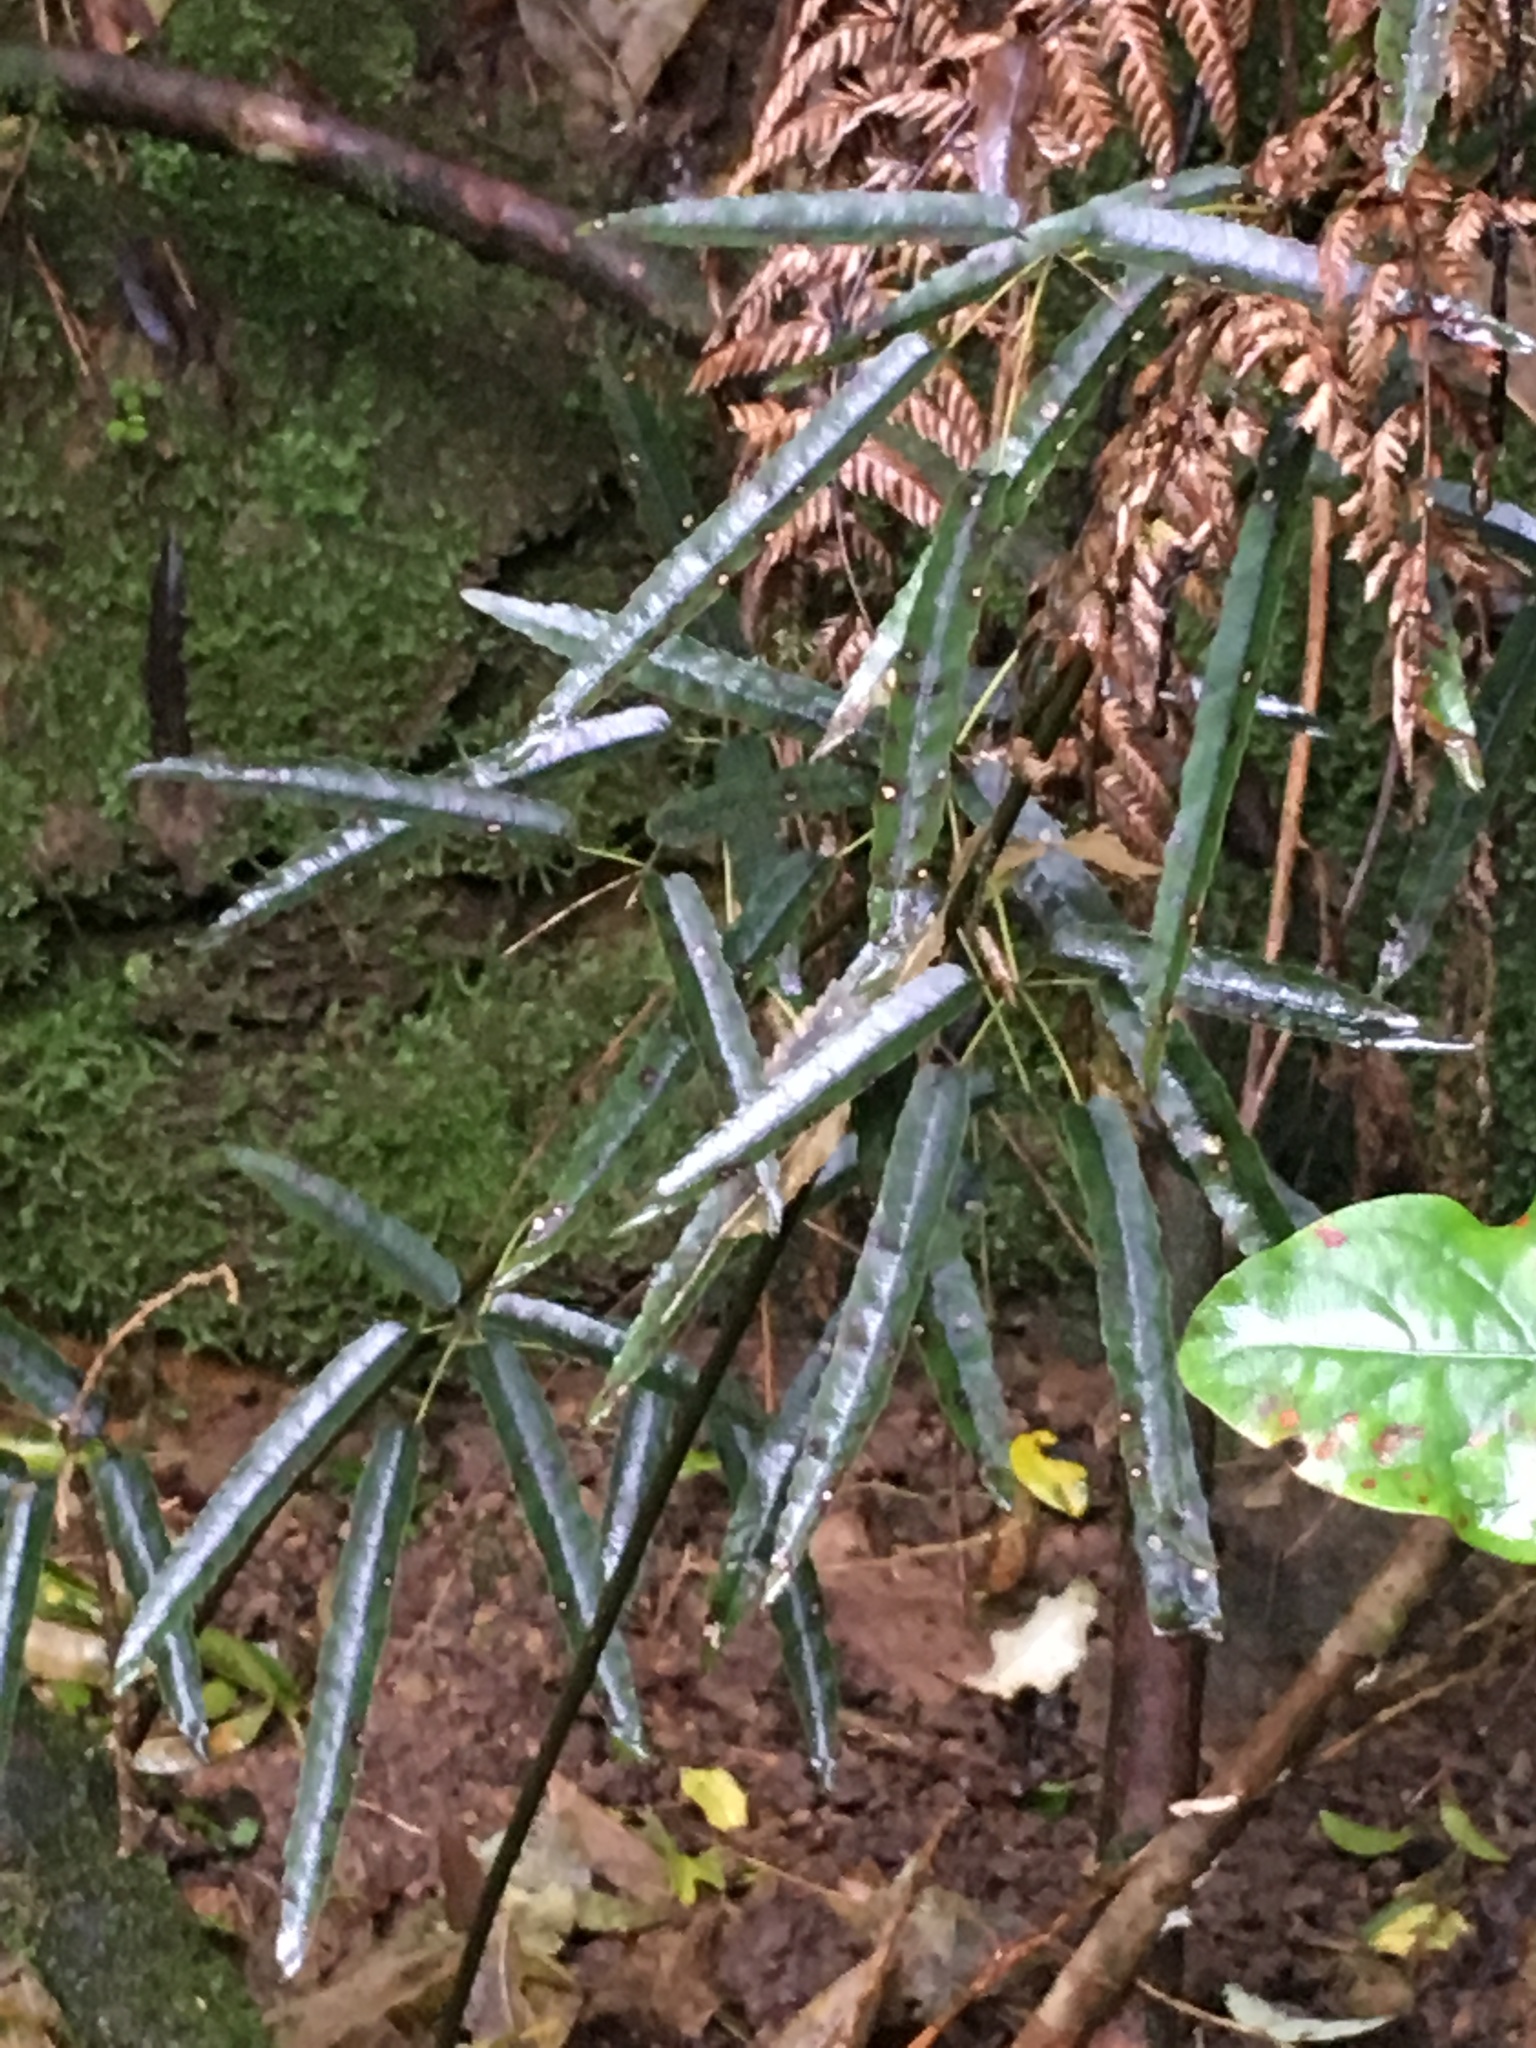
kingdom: Plantae
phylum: Tracheophyta
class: Magnoliopsida
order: Rosales
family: Rosaceae
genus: Rubus
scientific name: Rubus cissoides
